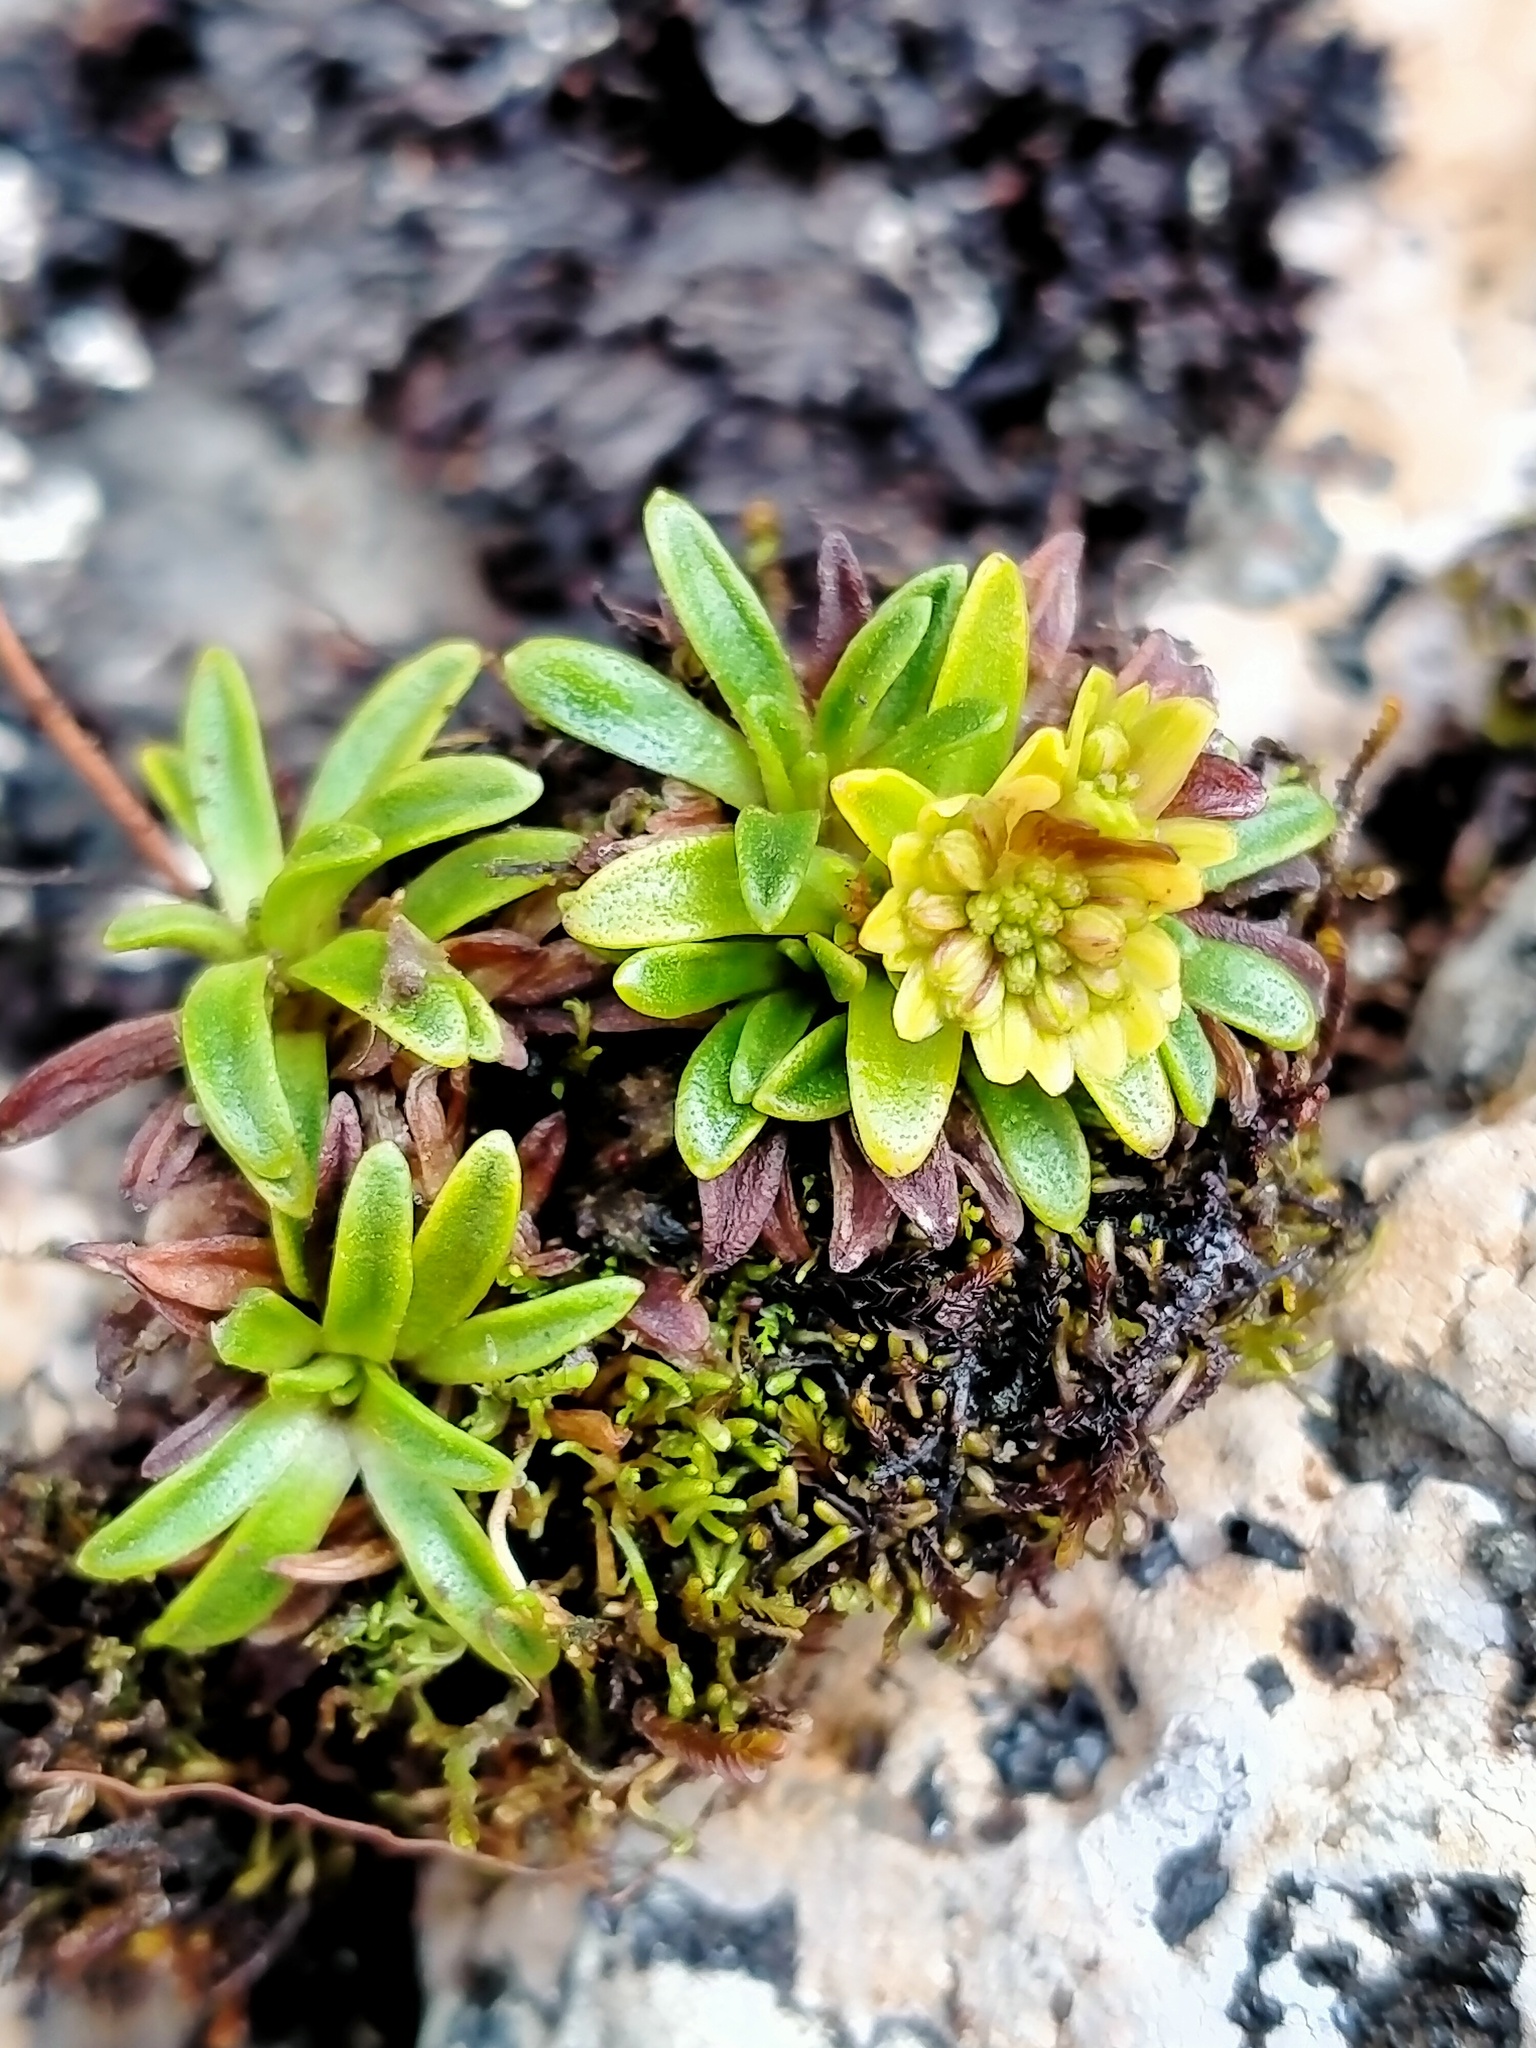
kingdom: Plantae
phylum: Tracheophyta
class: Magnoliopsida
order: Asterales
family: Asteraceae
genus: Abrotanella
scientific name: Abrotanella spathulata
